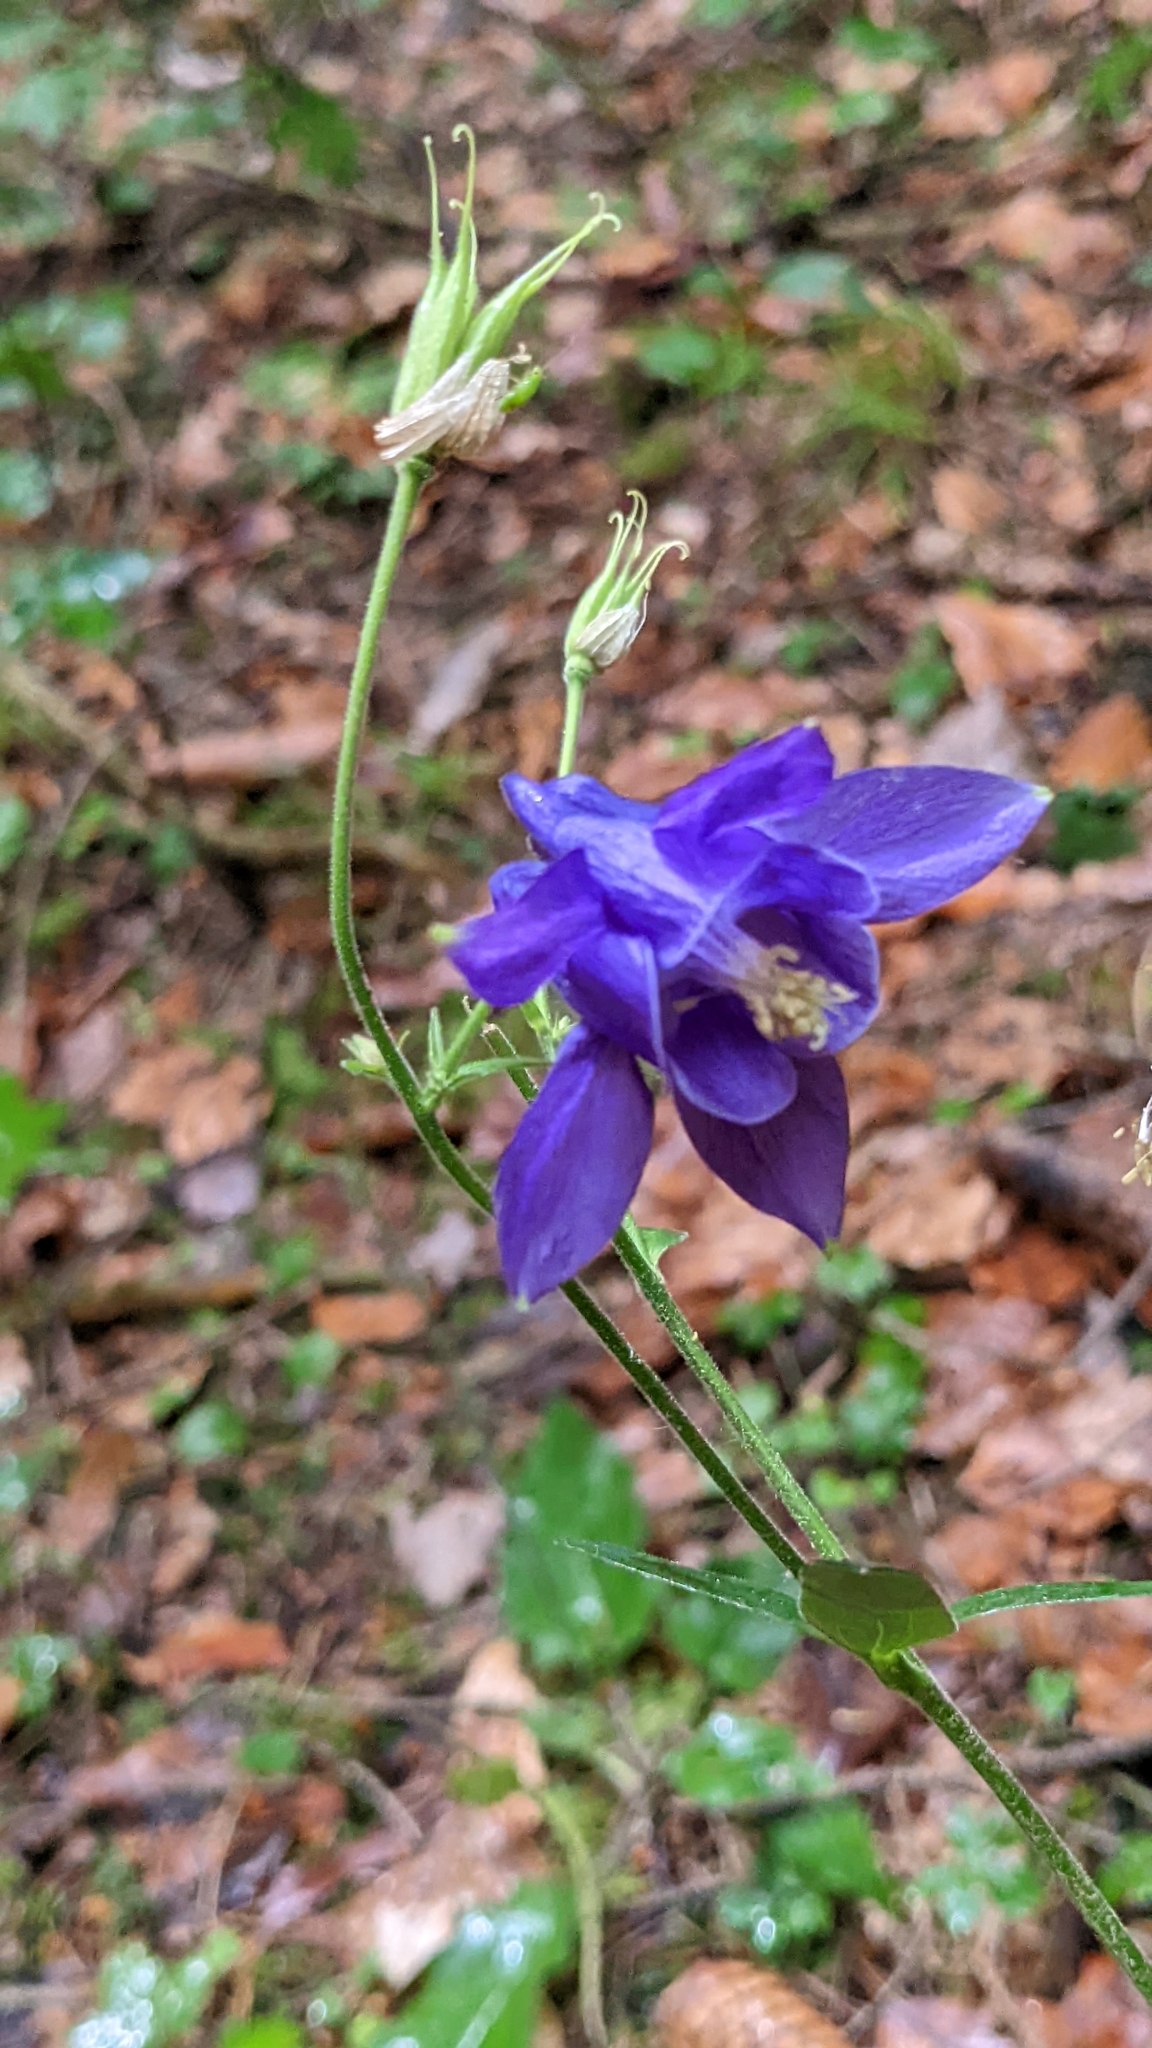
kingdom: Plantae
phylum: Tracheophyta
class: Magnoliopsida
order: Ranunculales
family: Ranunculaceae
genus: Aquilegia
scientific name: Aquilegia vulgaris
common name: Columbine
